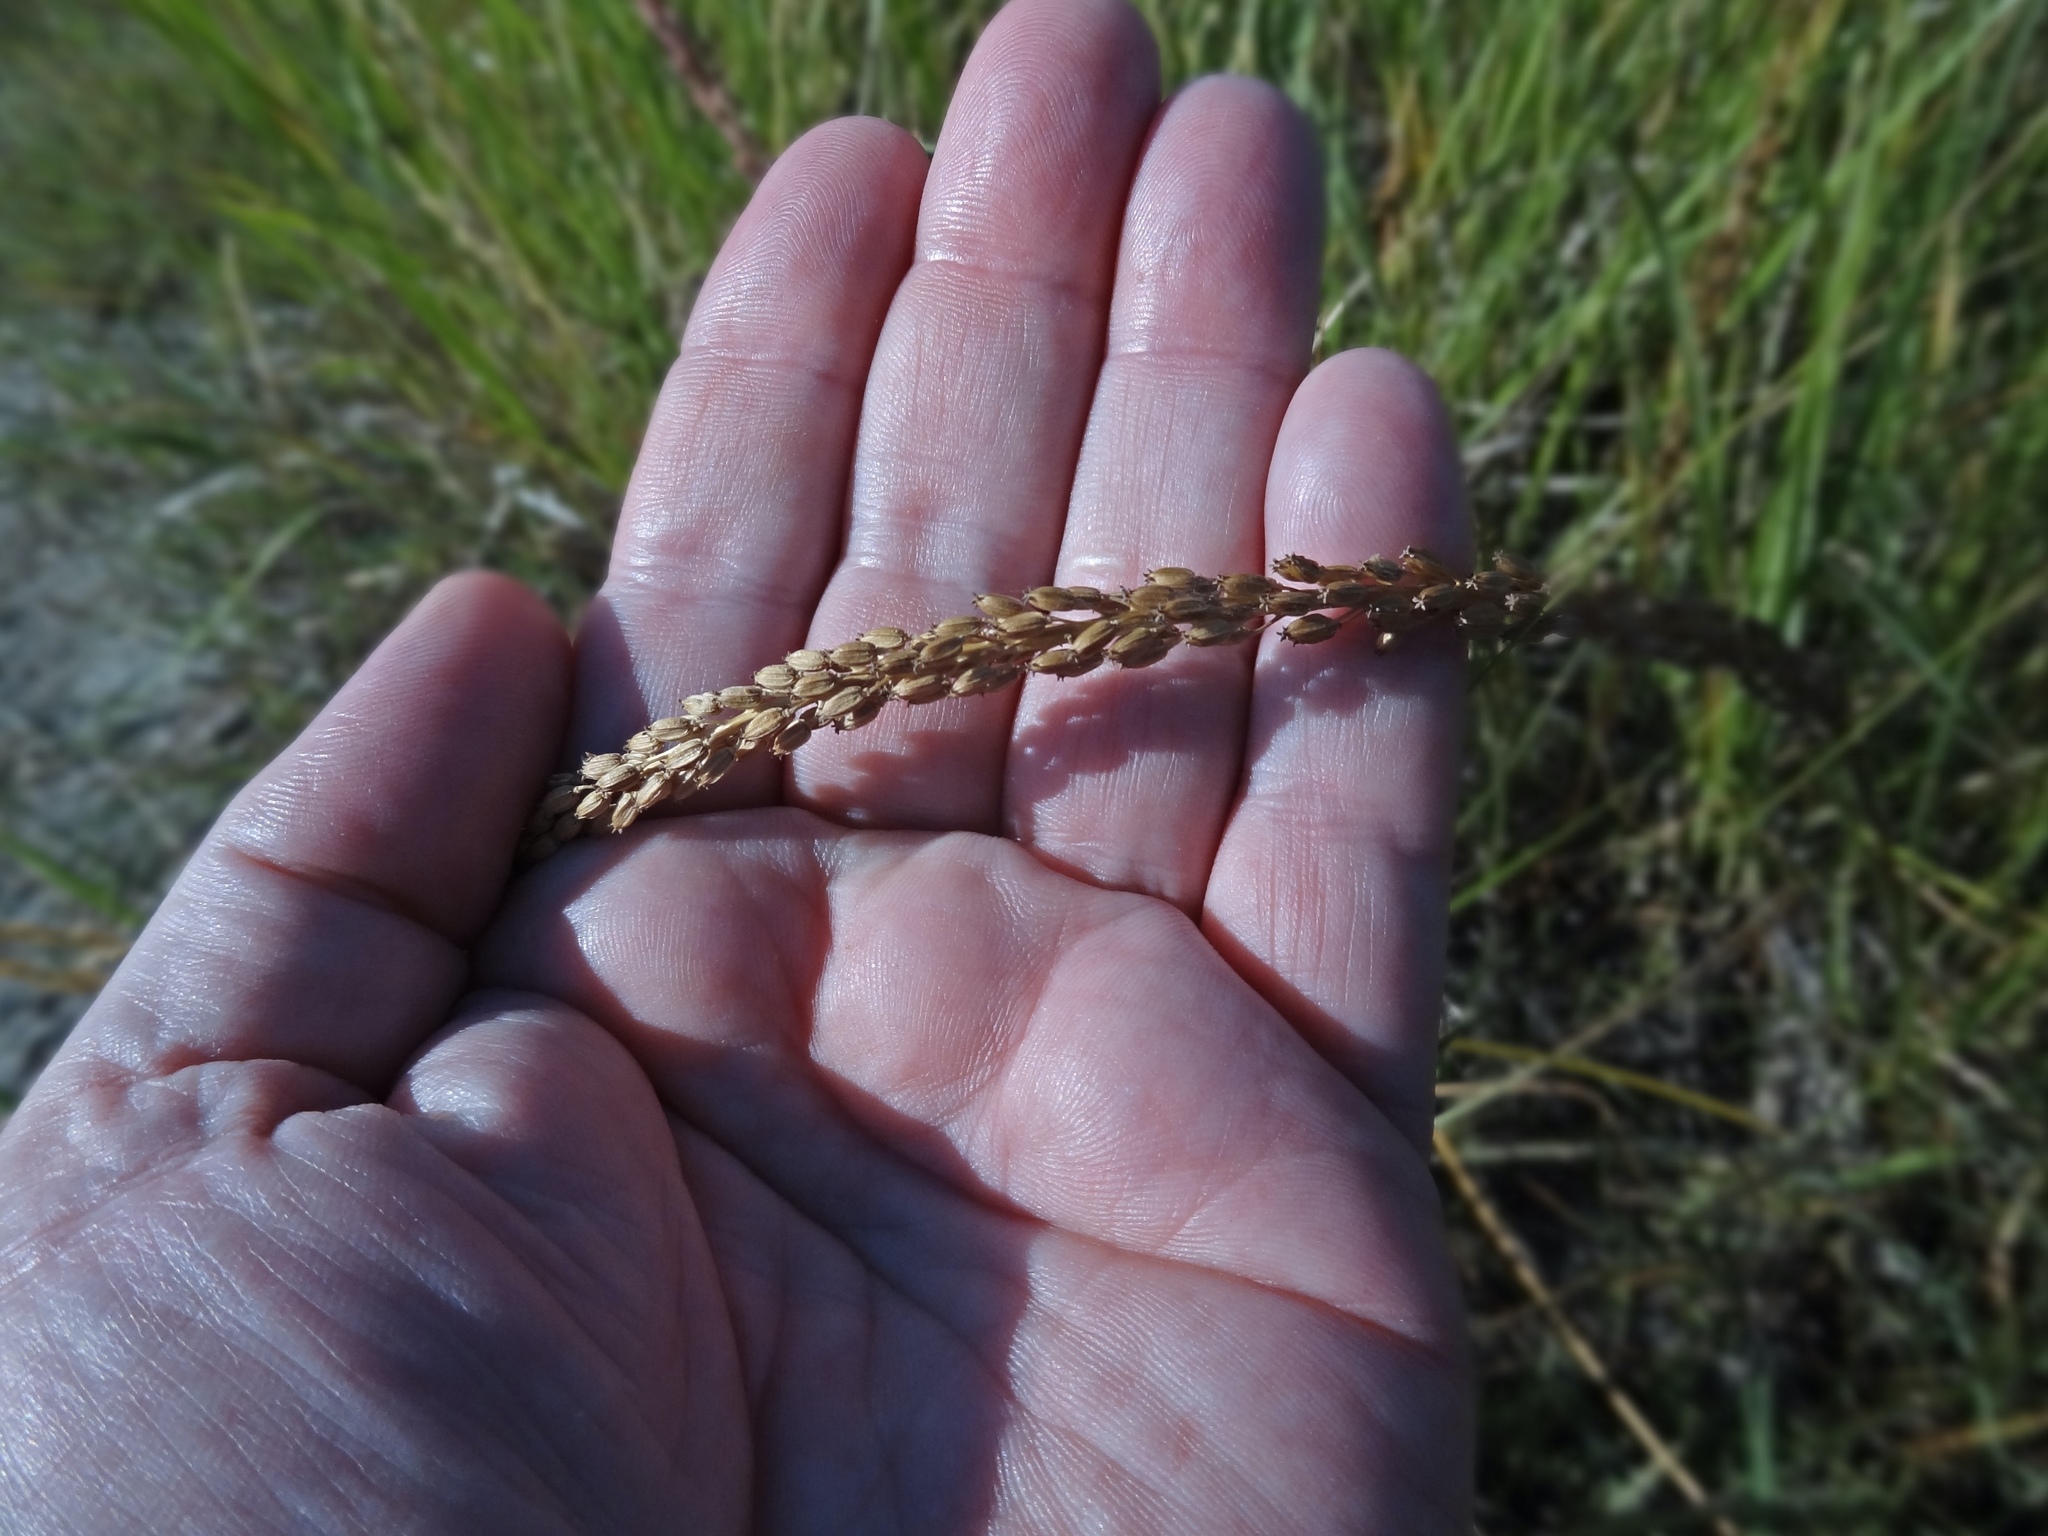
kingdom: Plantae
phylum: Tracheophyta
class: Liliopsida
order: Alismatales
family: Juncaginaceae
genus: Triglochin
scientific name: Triglochin maritima
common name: Sea arrowgrass
